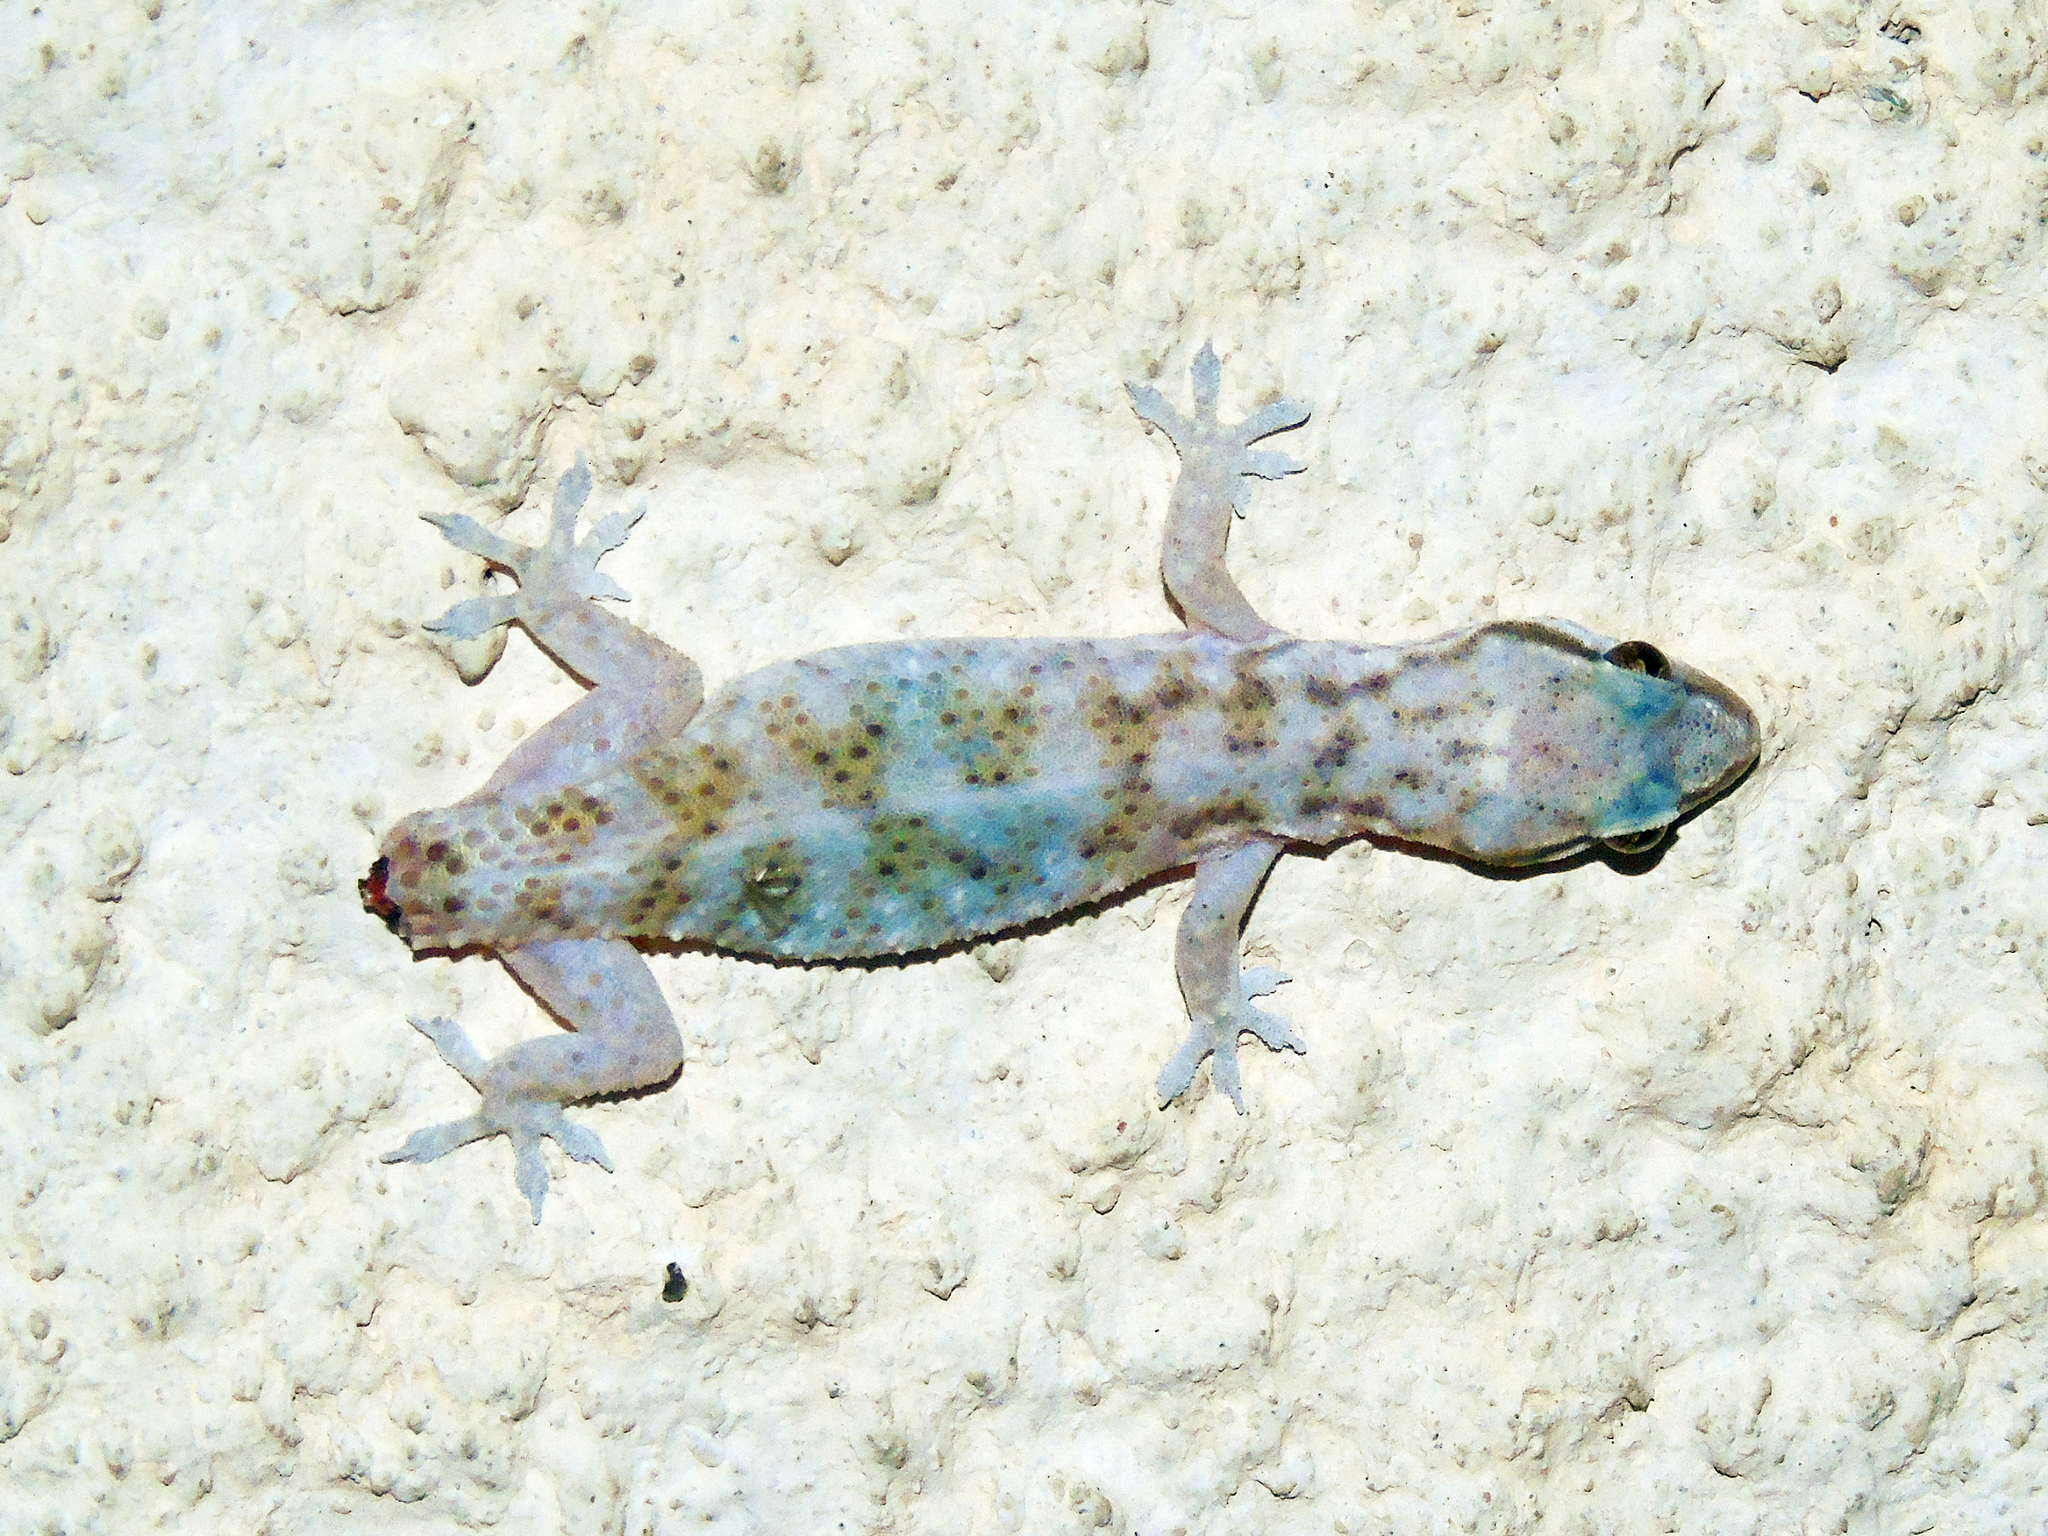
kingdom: Animalia
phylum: Chordata
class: Squamata
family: Gekkonidae
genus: Hemidactylus
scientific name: Hemidactylus hajarensis
